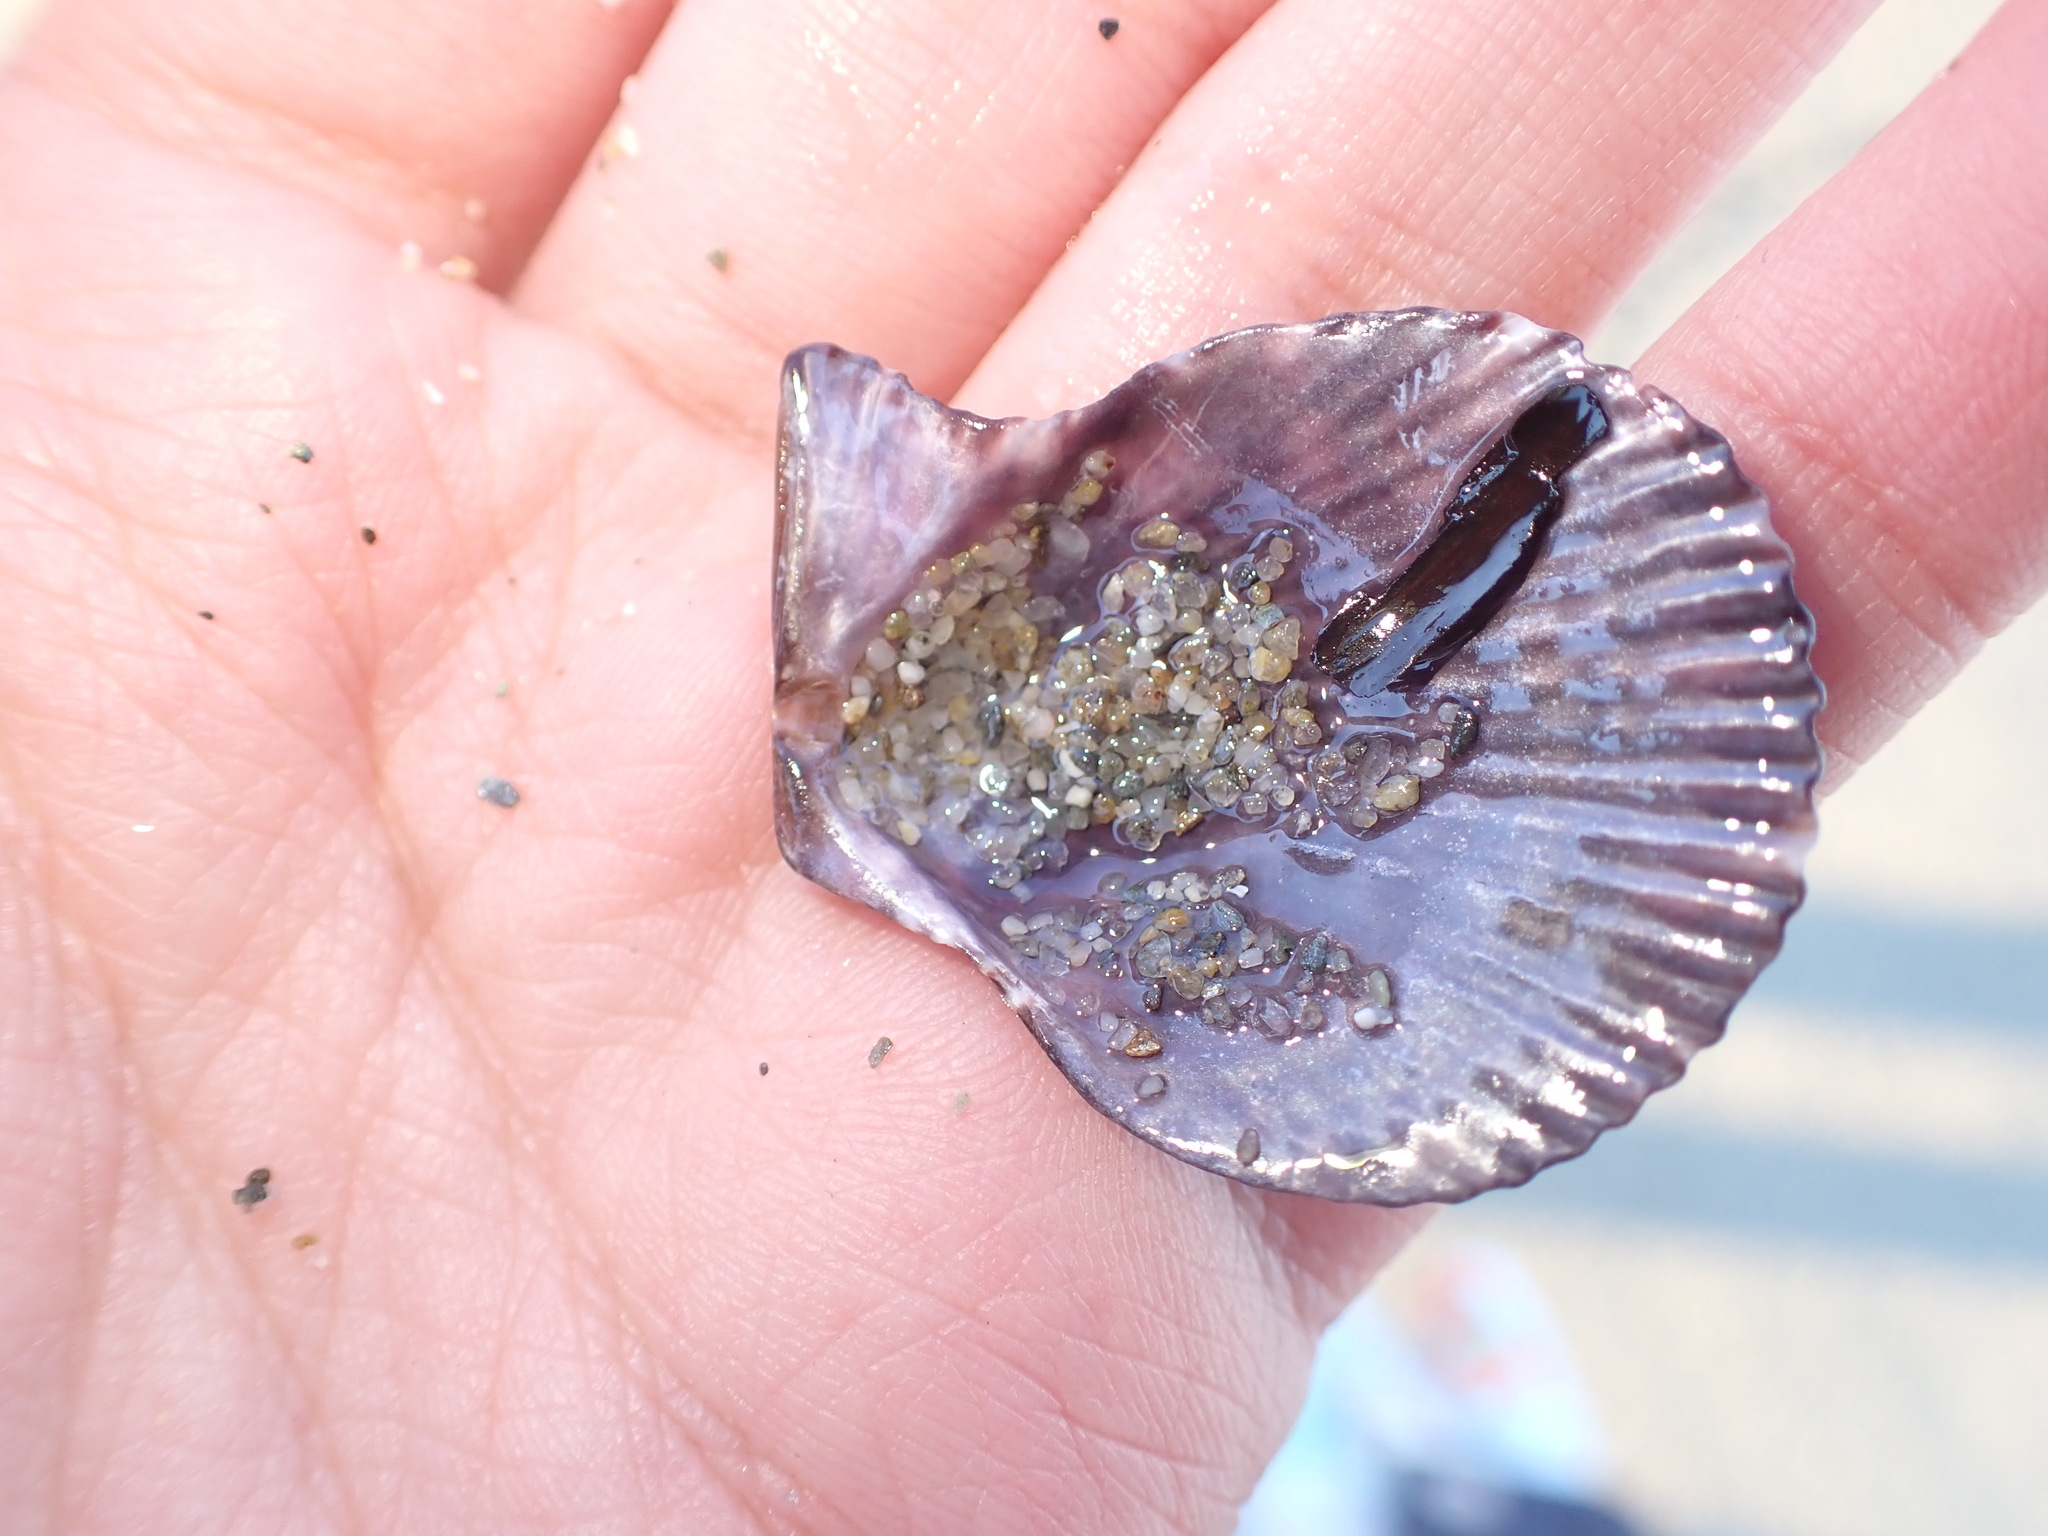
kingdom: Animalia
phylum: Mollusca
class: Bivalvia
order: Pectinida
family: Pectinidae
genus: Mimachlamys
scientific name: Mimachlamys varia
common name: Variegated scallop
